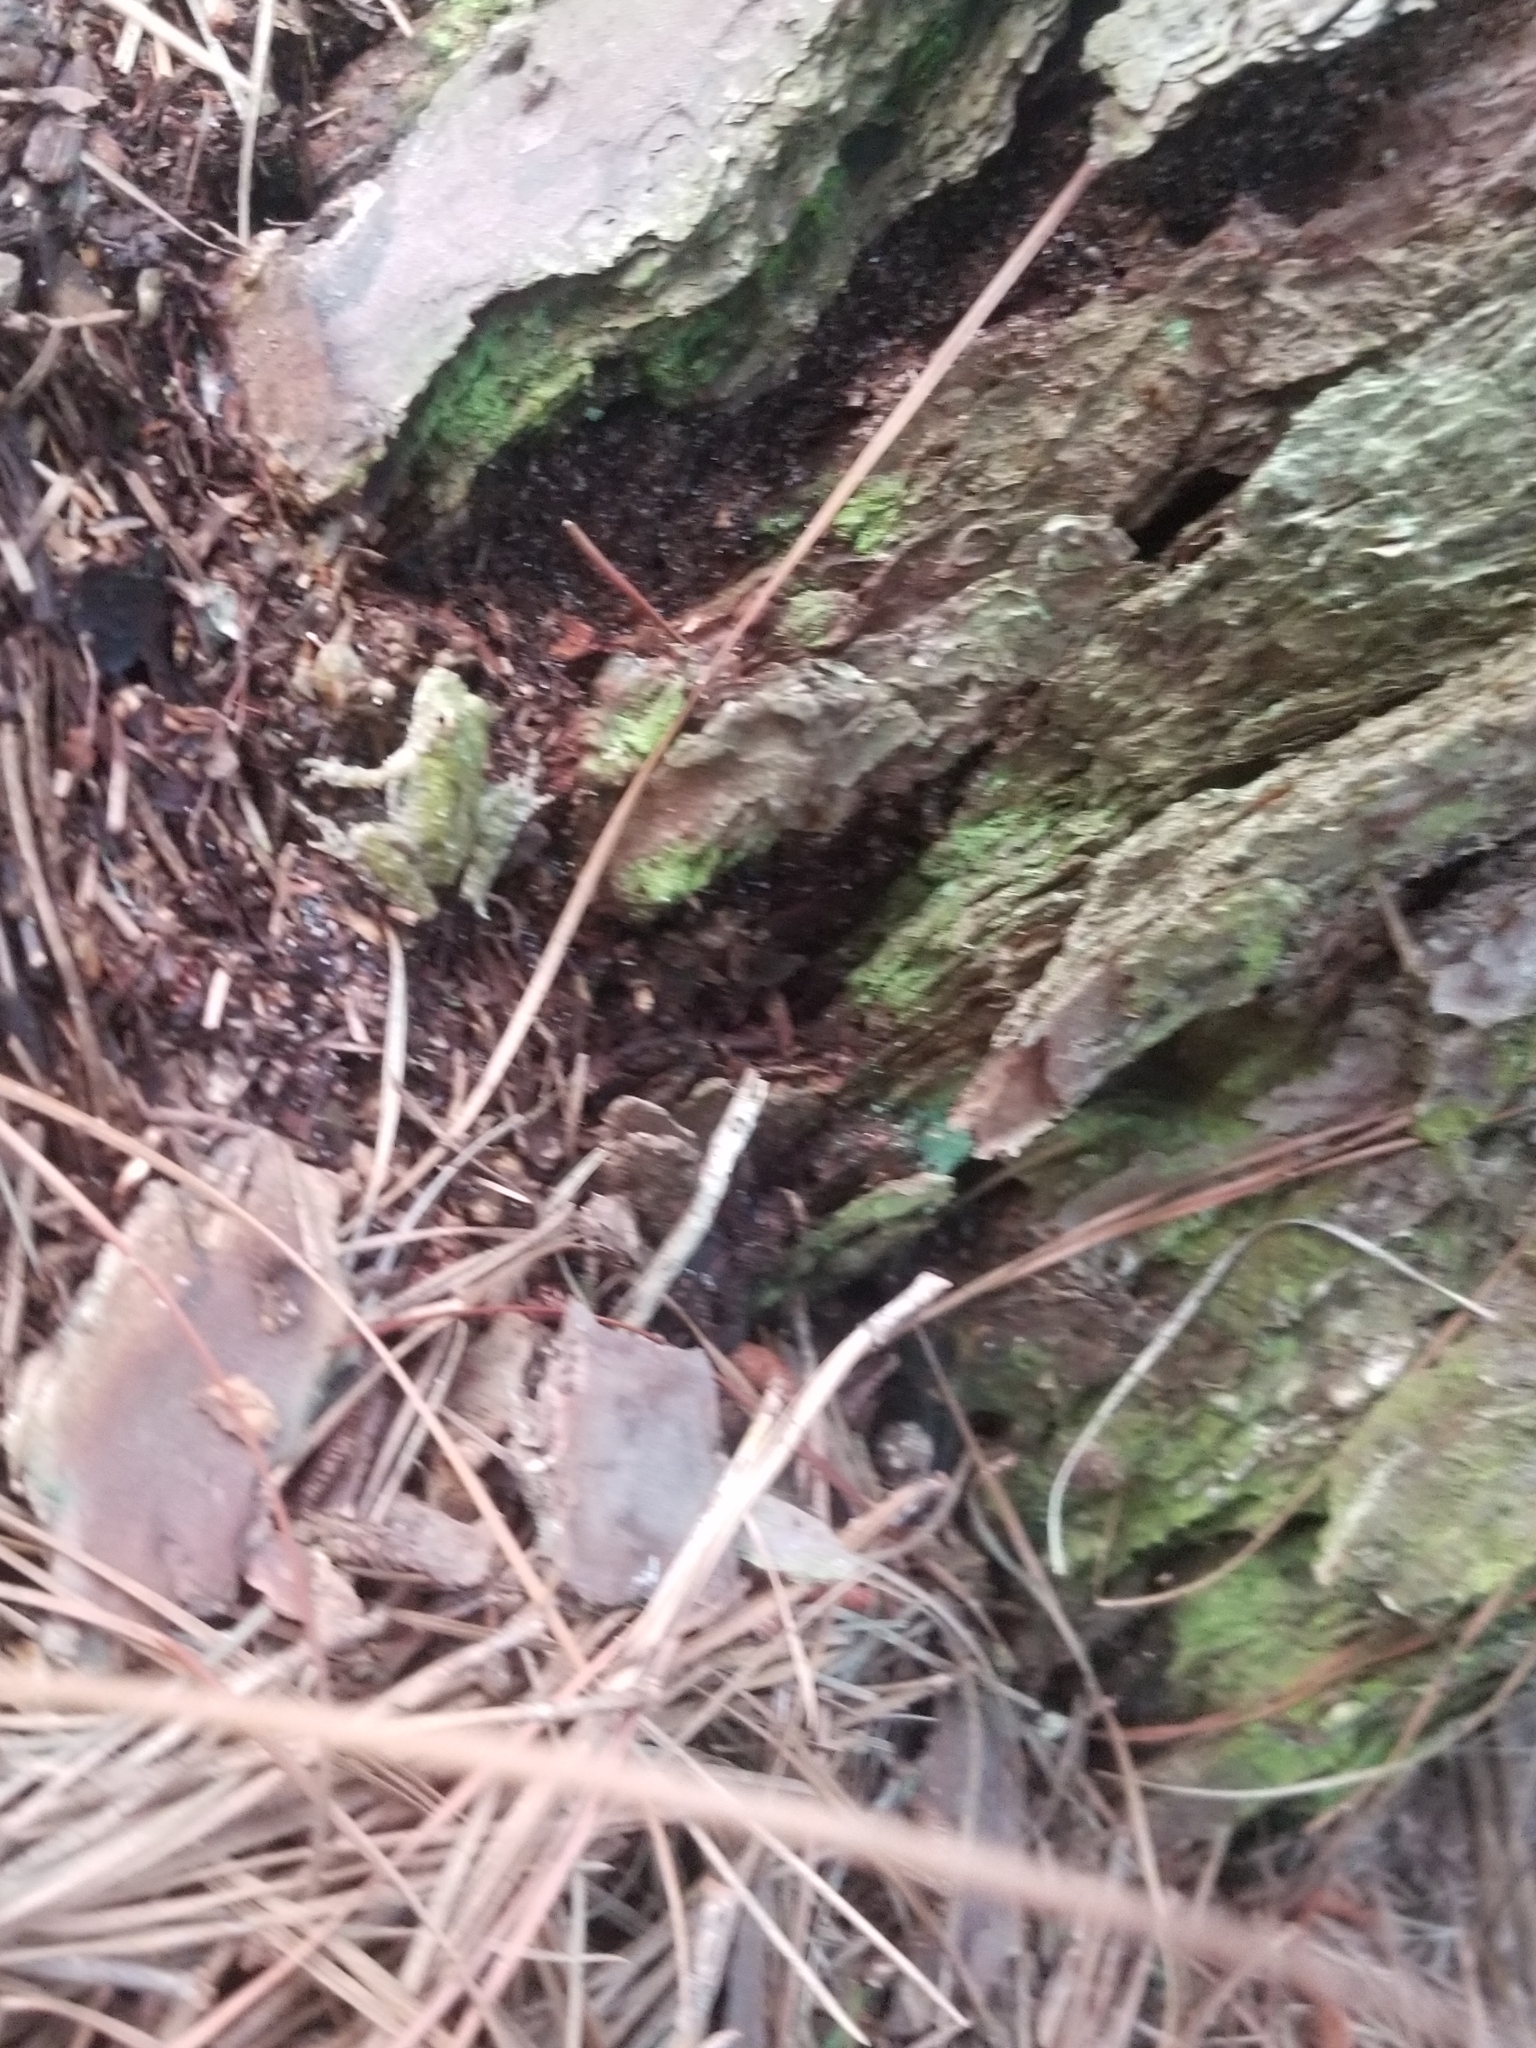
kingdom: Animalia
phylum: Chordata
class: Amphibia
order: Anura
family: Hylidae
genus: Acris
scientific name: Acris crepitans
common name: Northern cricket frog
